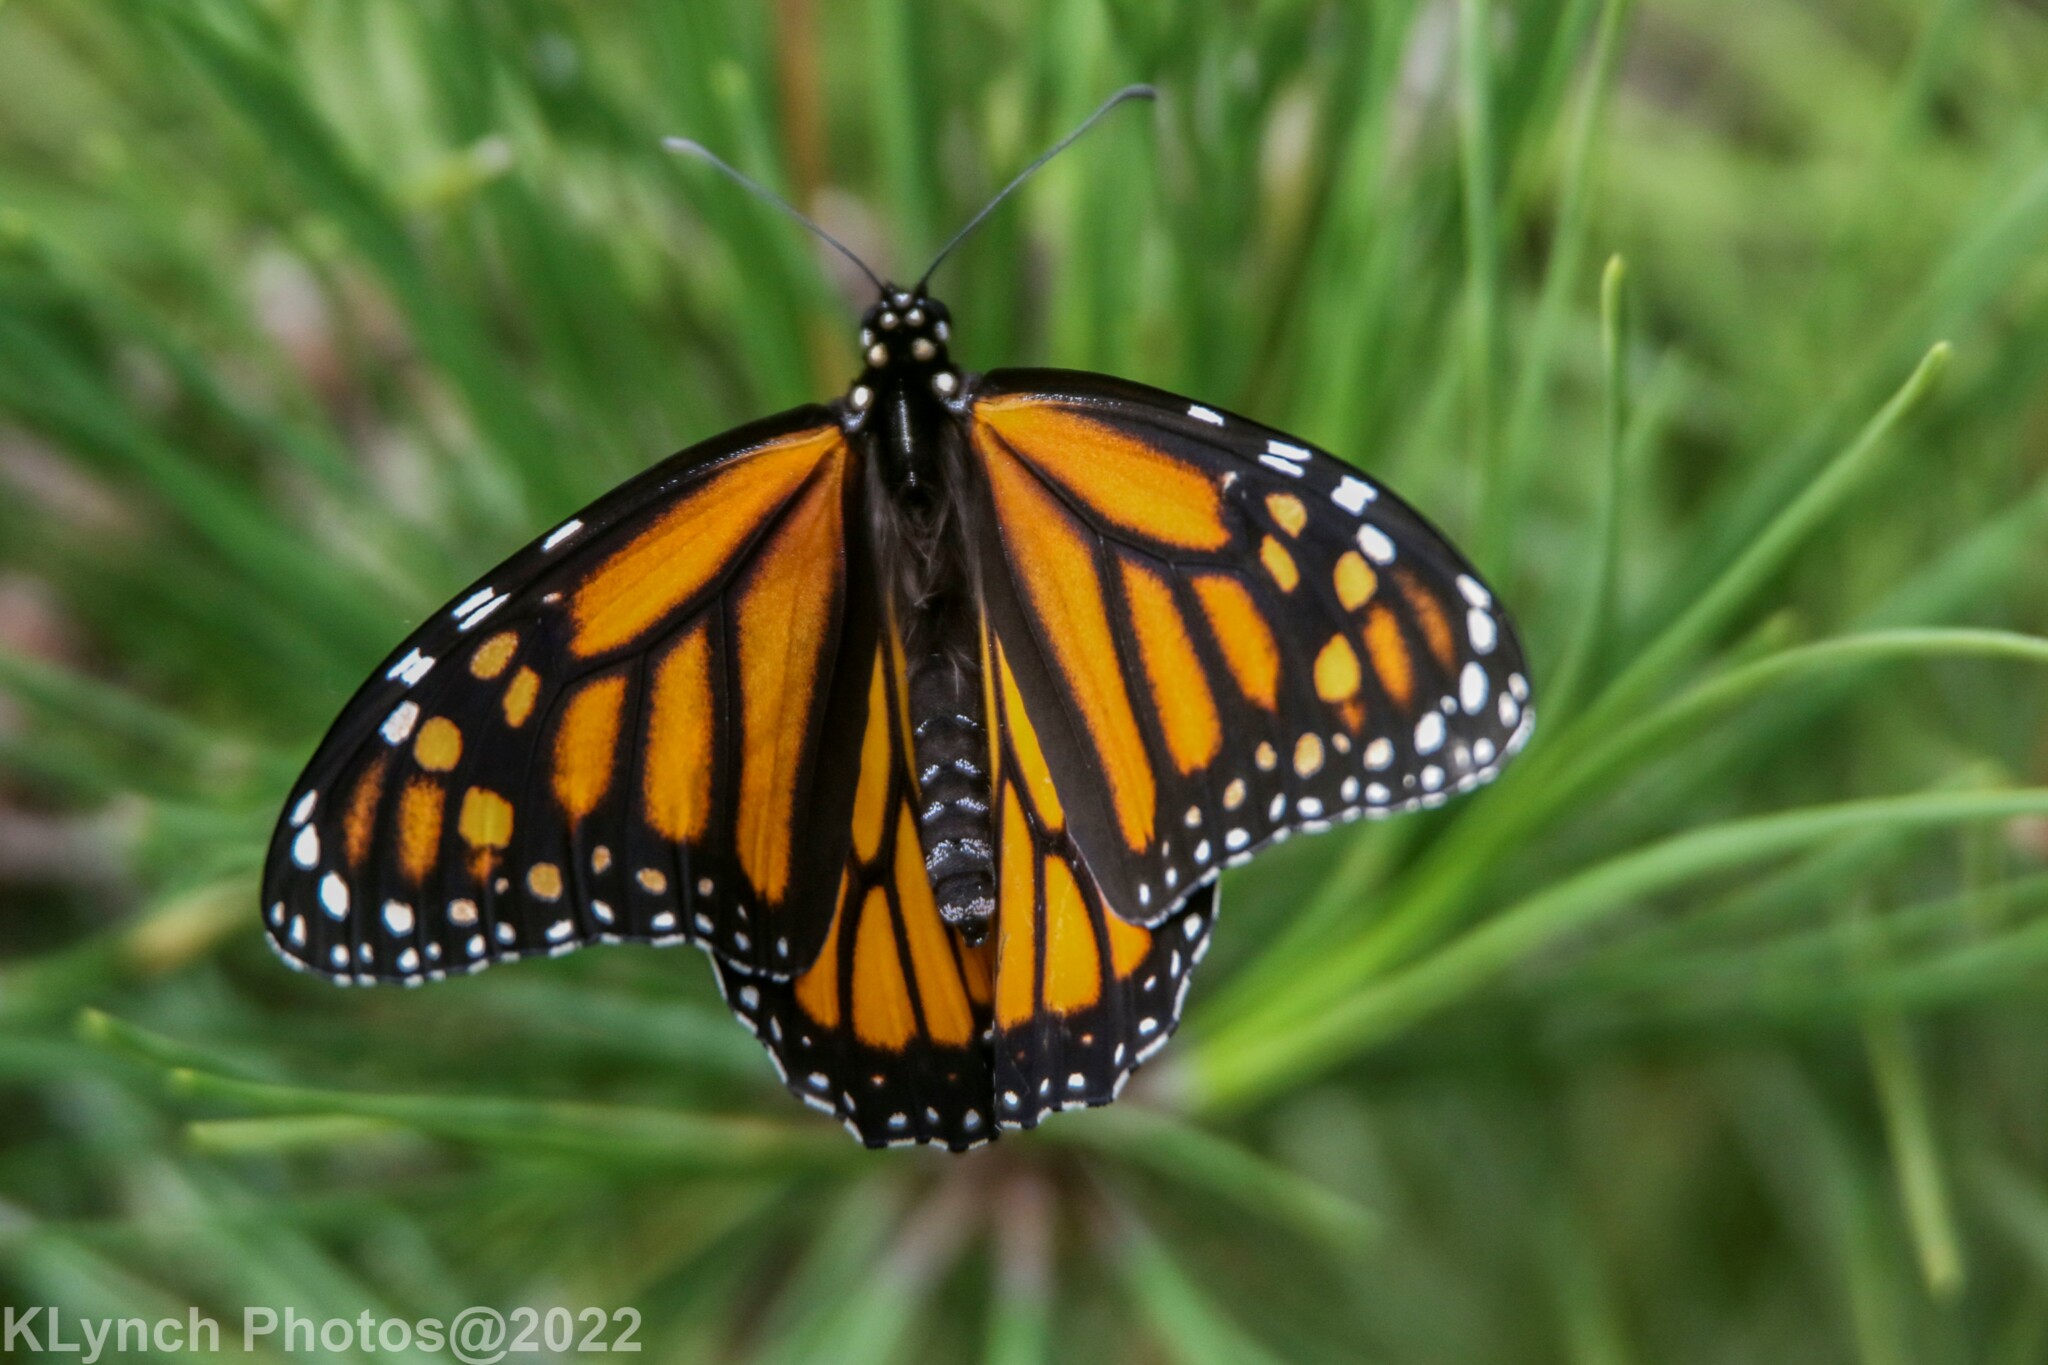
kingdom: Animalia
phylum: Arthropoda
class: Insecta
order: Lepidoptera
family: Nymphalidae
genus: Danaus
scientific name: Danaus plexippus
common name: Monarch
